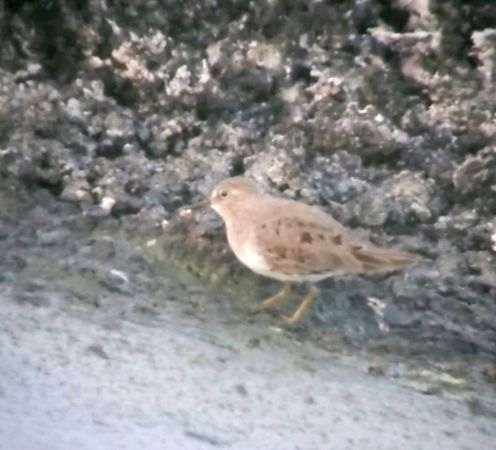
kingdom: Animalia
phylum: Chordata
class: Aves
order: Charadriiformes
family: Scolopacidae
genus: Calidris
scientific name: Calidris temminckii
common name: Temminck's stint
